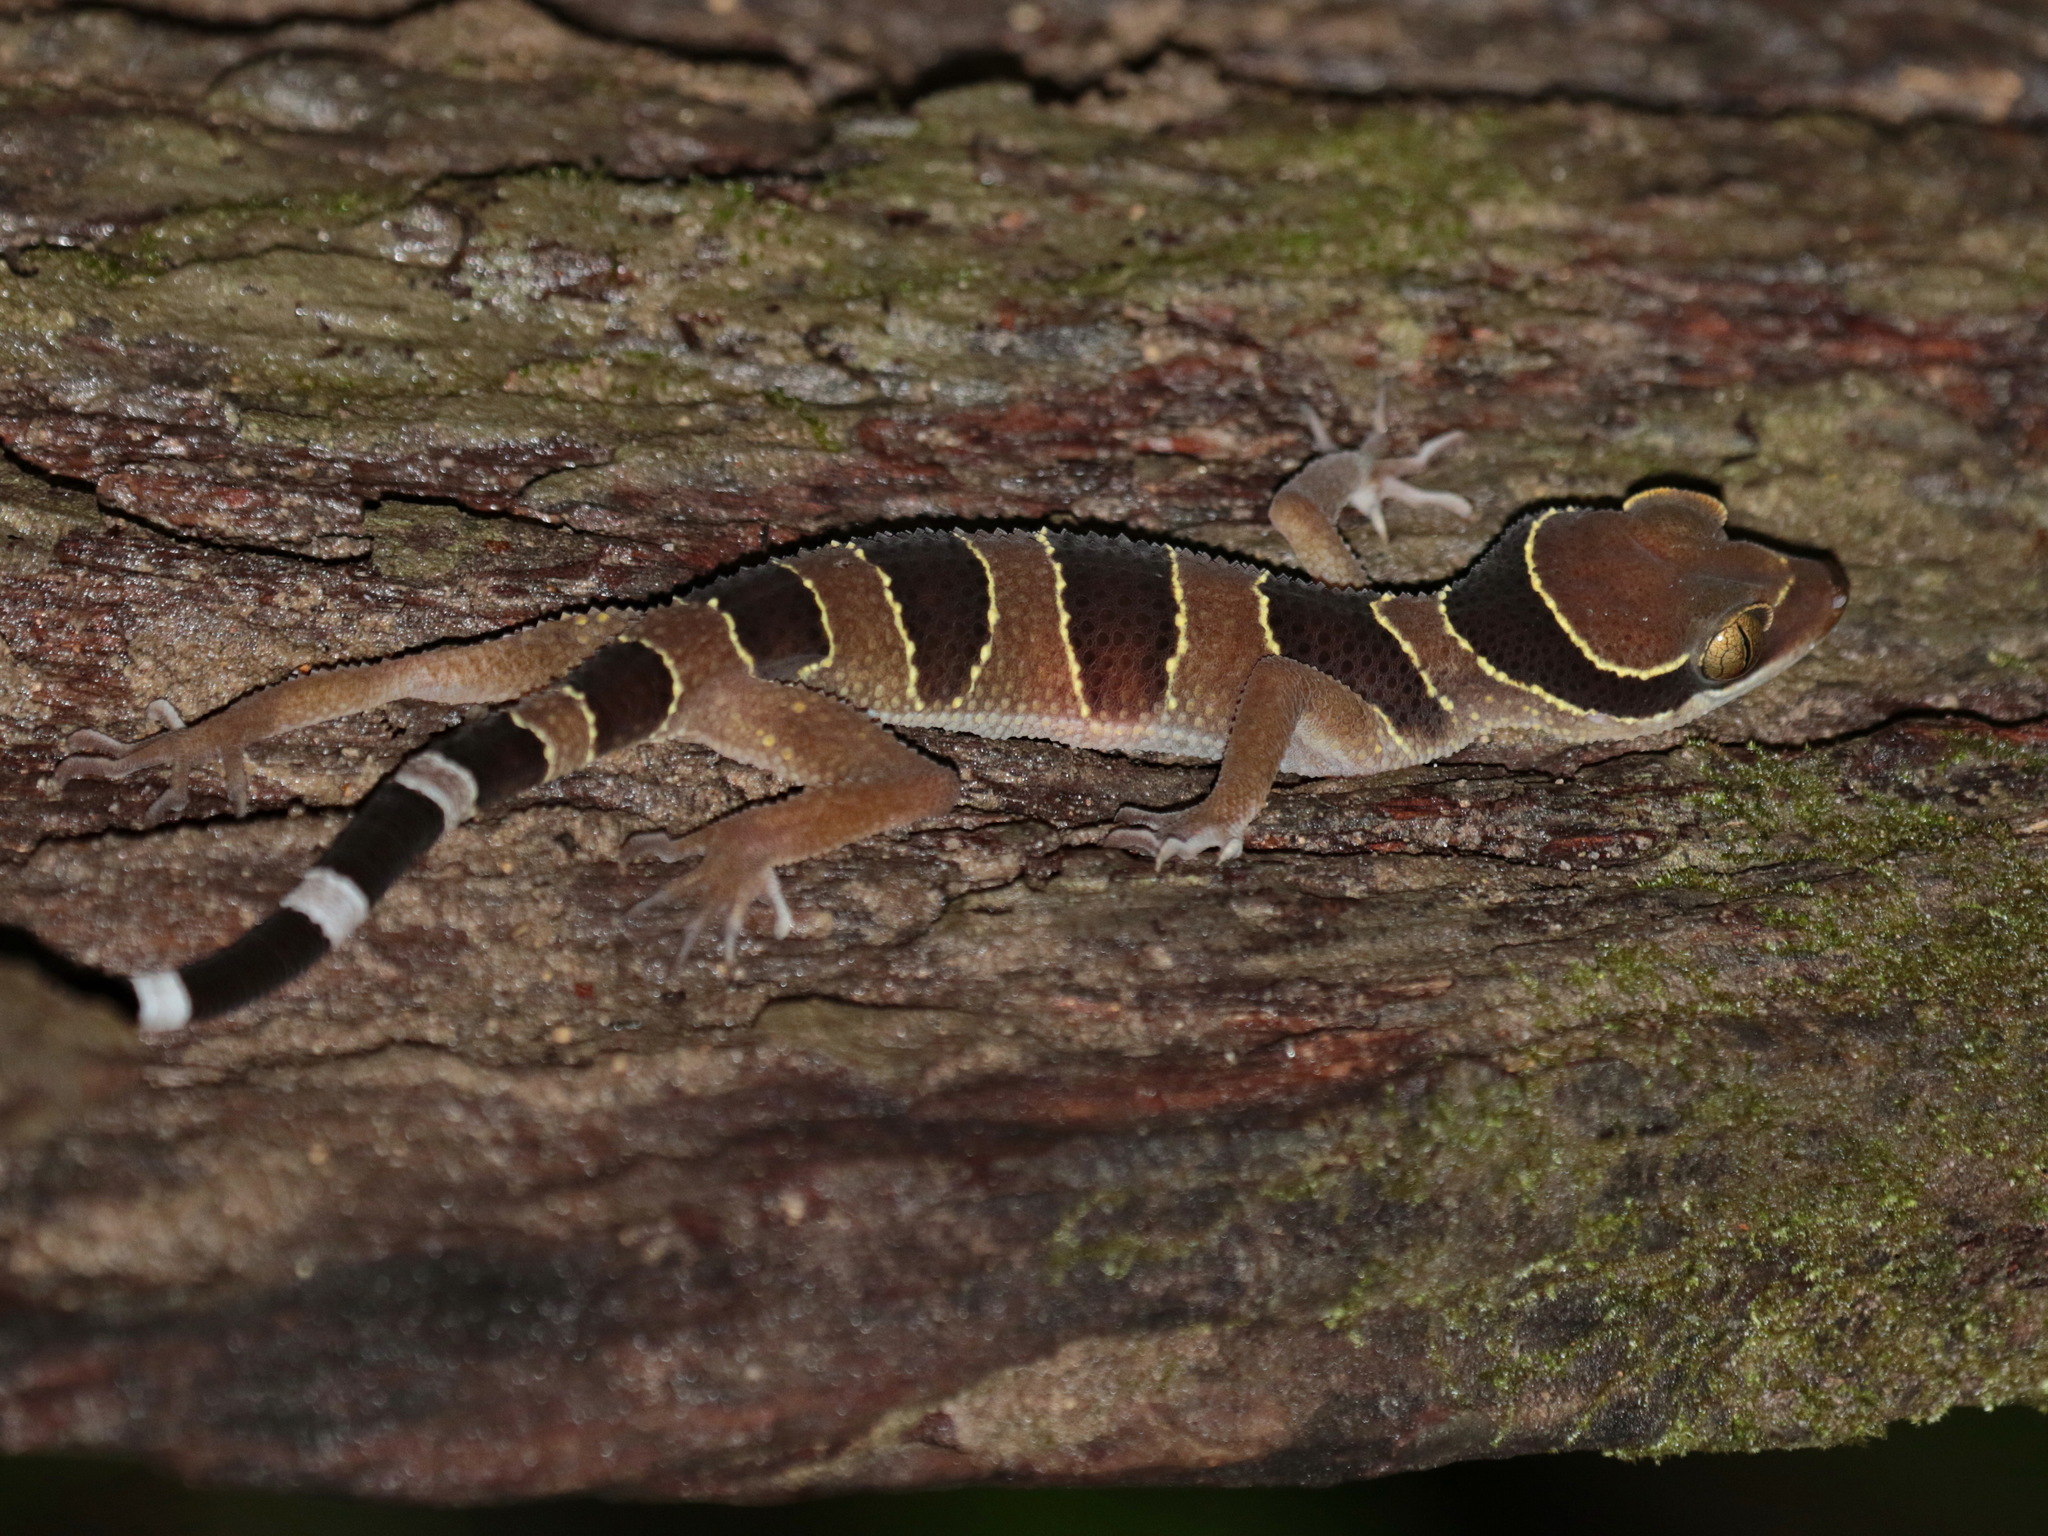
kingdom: Animalia
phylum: Chordata
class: Squamata
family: Gekkonidae
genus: Cyrtodactylus
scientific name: Cyrtodactylus macrotuberculatus
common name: Large tubercled bent-toed gecko
